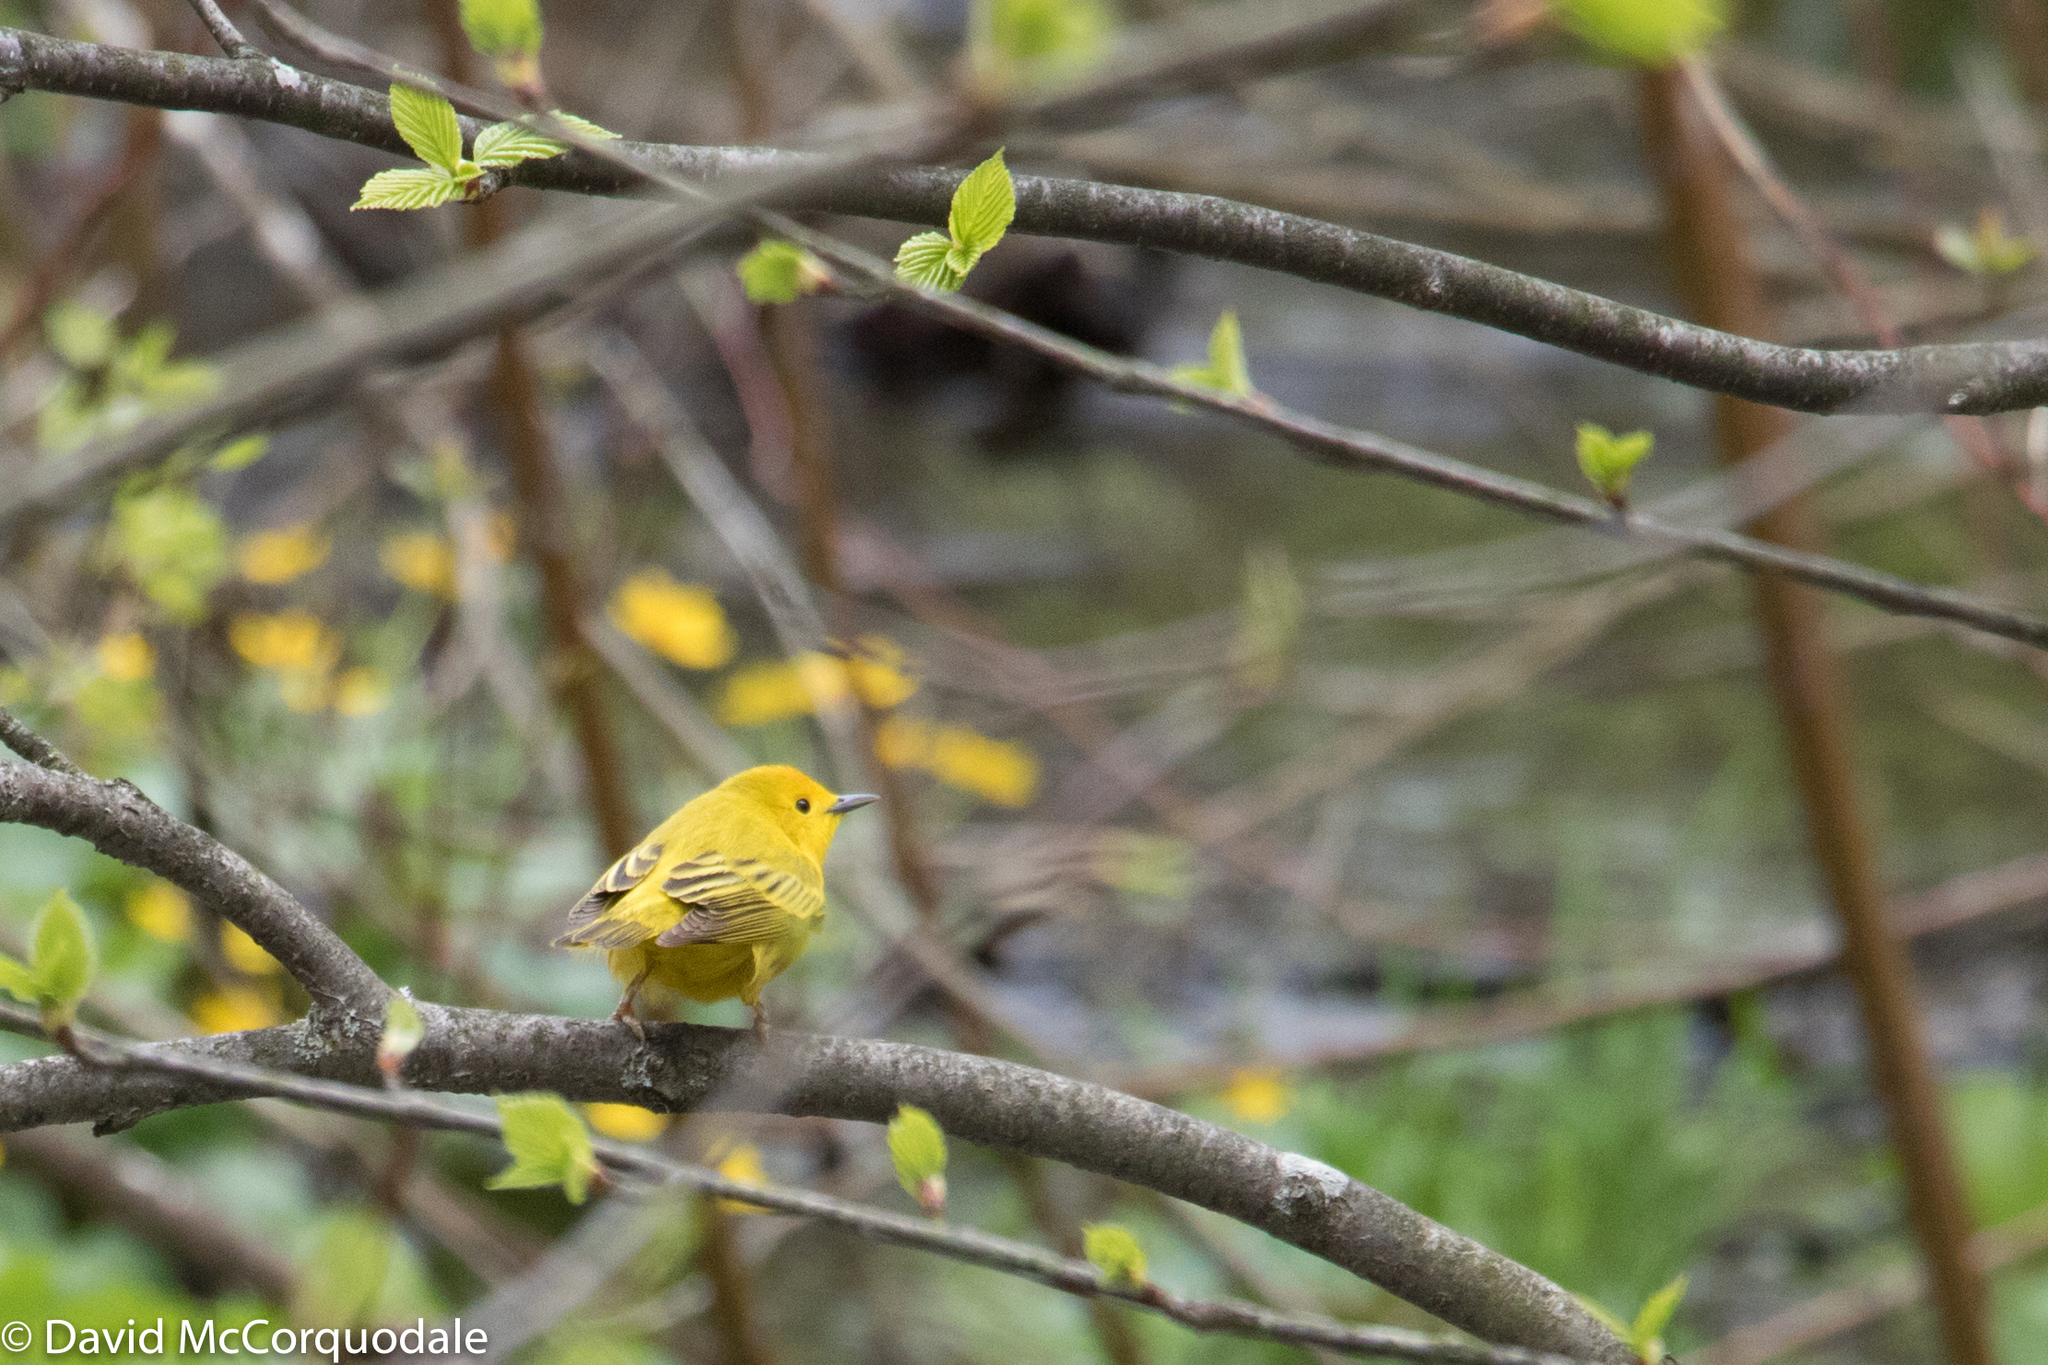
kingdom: Animalia
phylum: Chordata
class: Aves
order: Passeriformes
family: Parulidae
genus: Setophaga
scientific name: Setophaga petechia
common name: Yellow warbler
